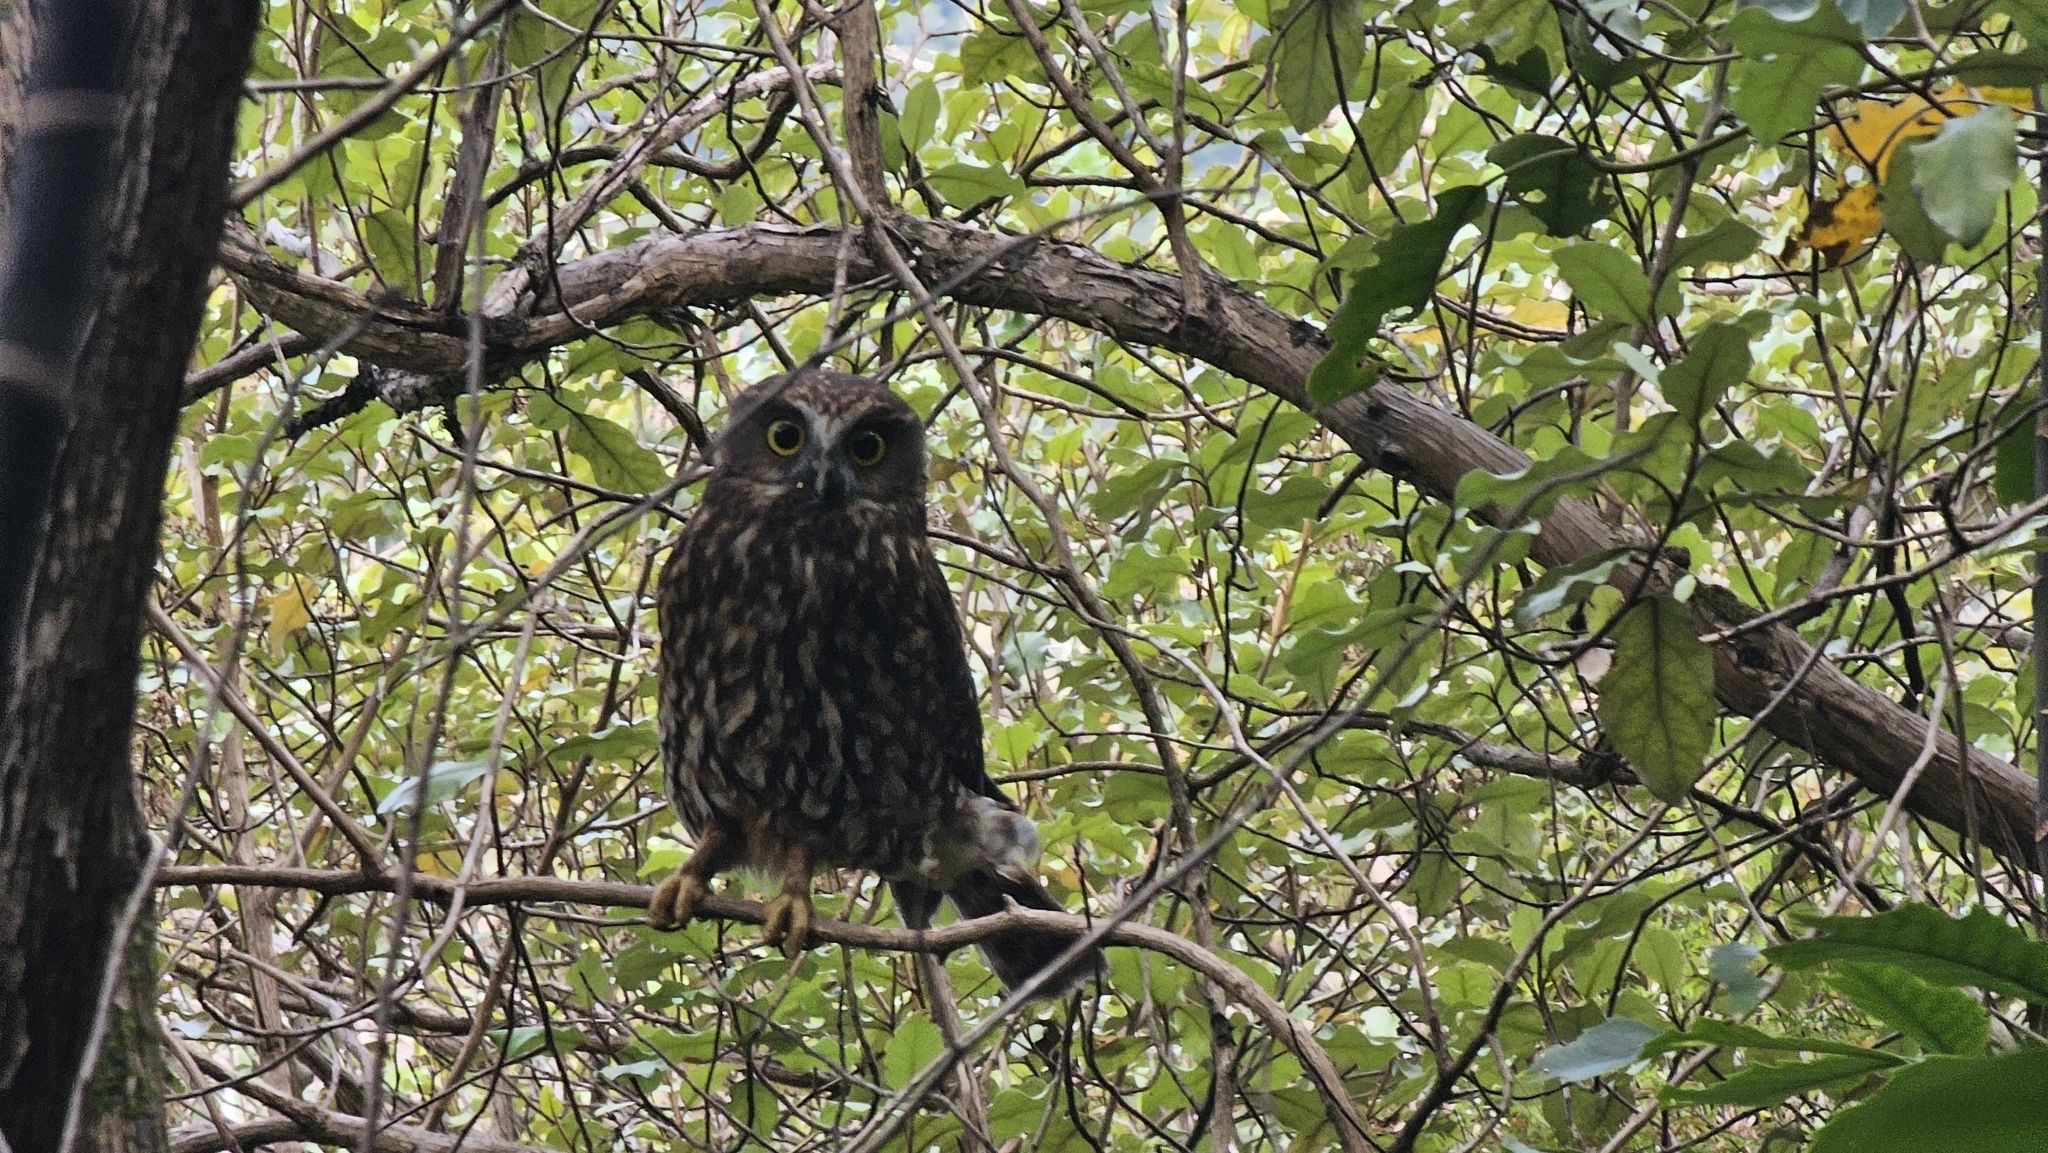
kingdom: Animalia
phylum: Chordata
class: Aves
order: Strigiformes
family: Strigidae
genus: Ninox
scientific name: Ninox novaeseelandiae
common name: Morepork
